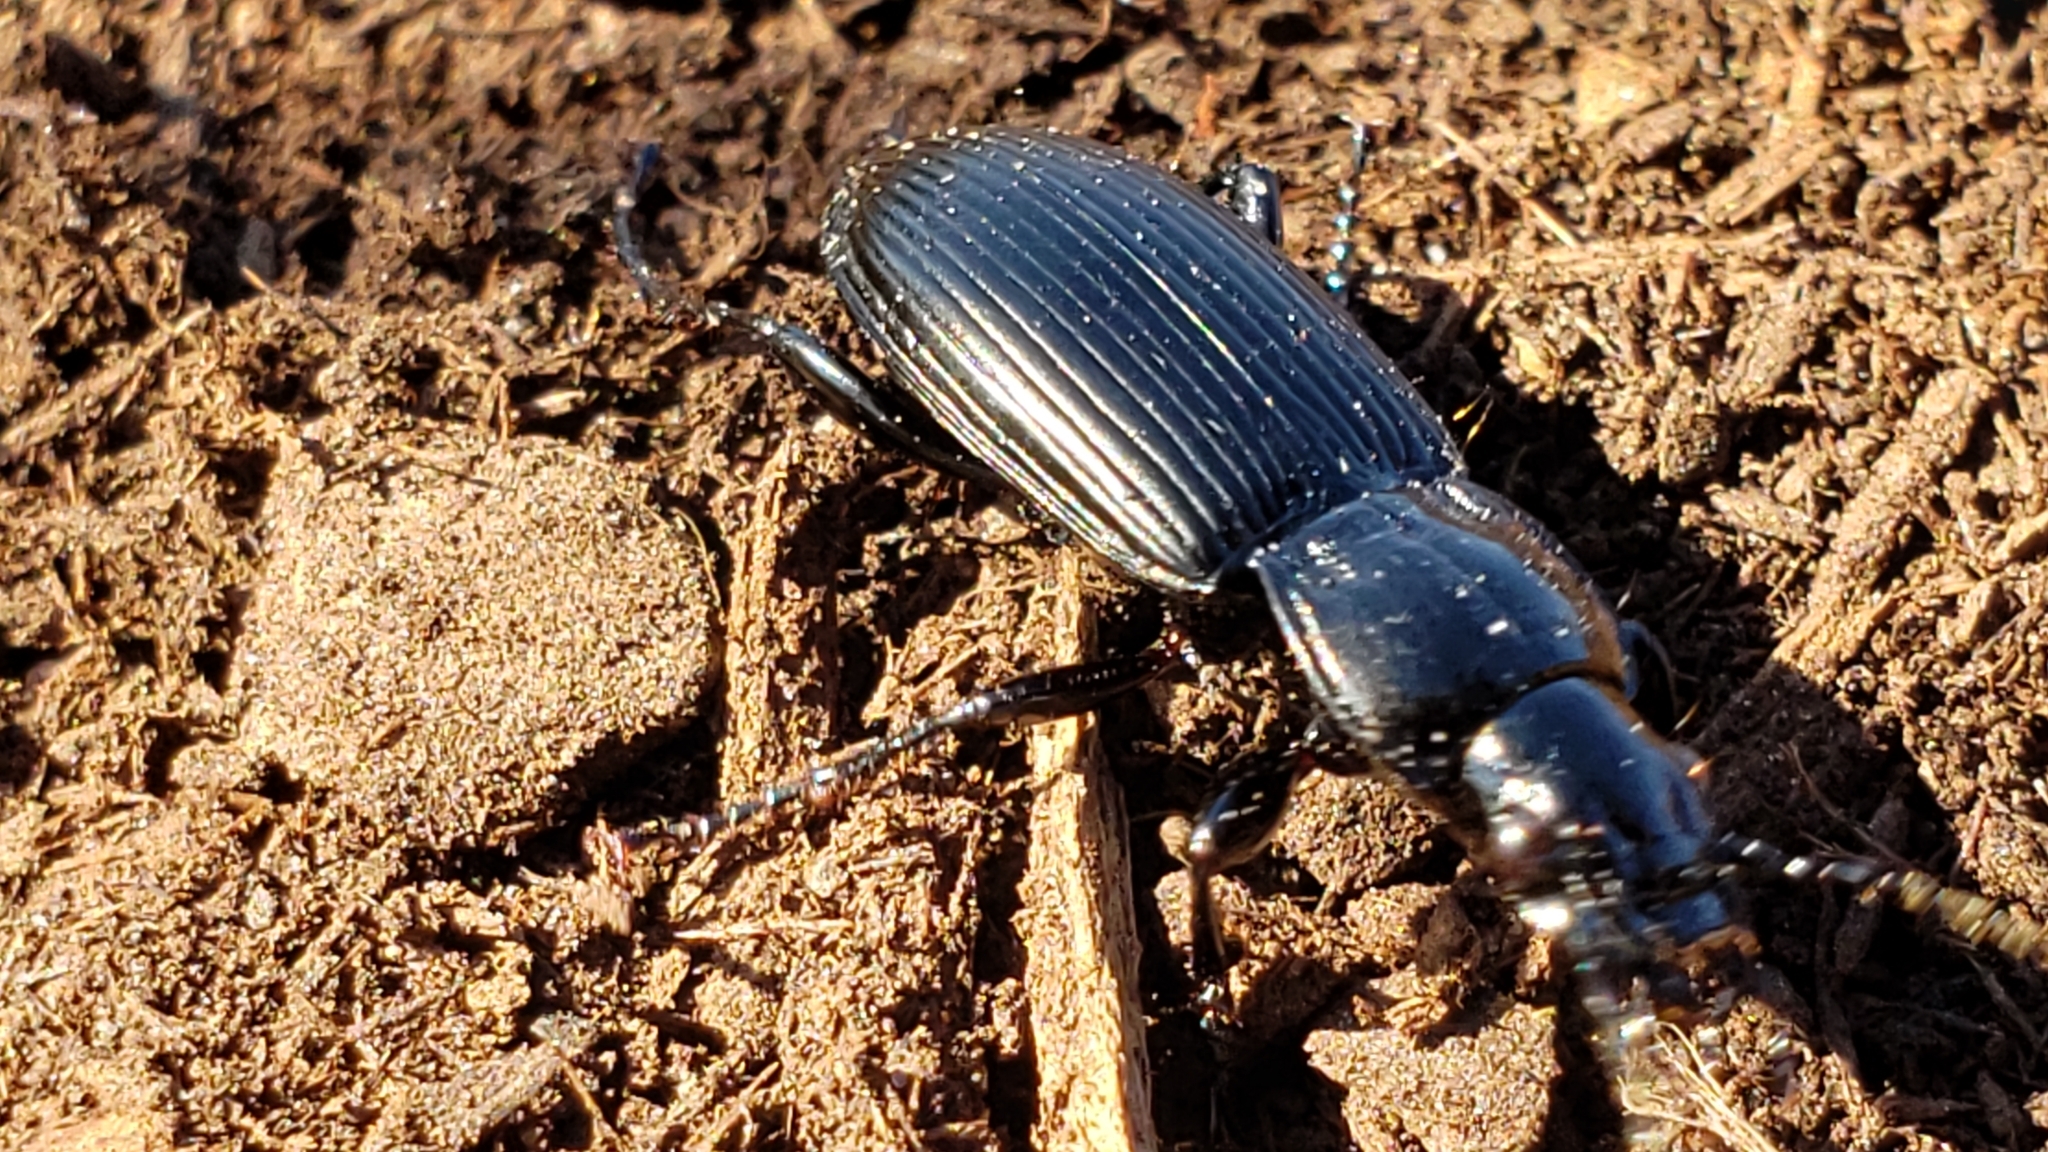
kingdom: Animalia
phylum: Arthropoda
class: Insecta
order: Coleoptera
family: Carabidae
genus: Pterostichus
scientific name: Pterostichus melanarius
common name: European dark harp ground beetle
